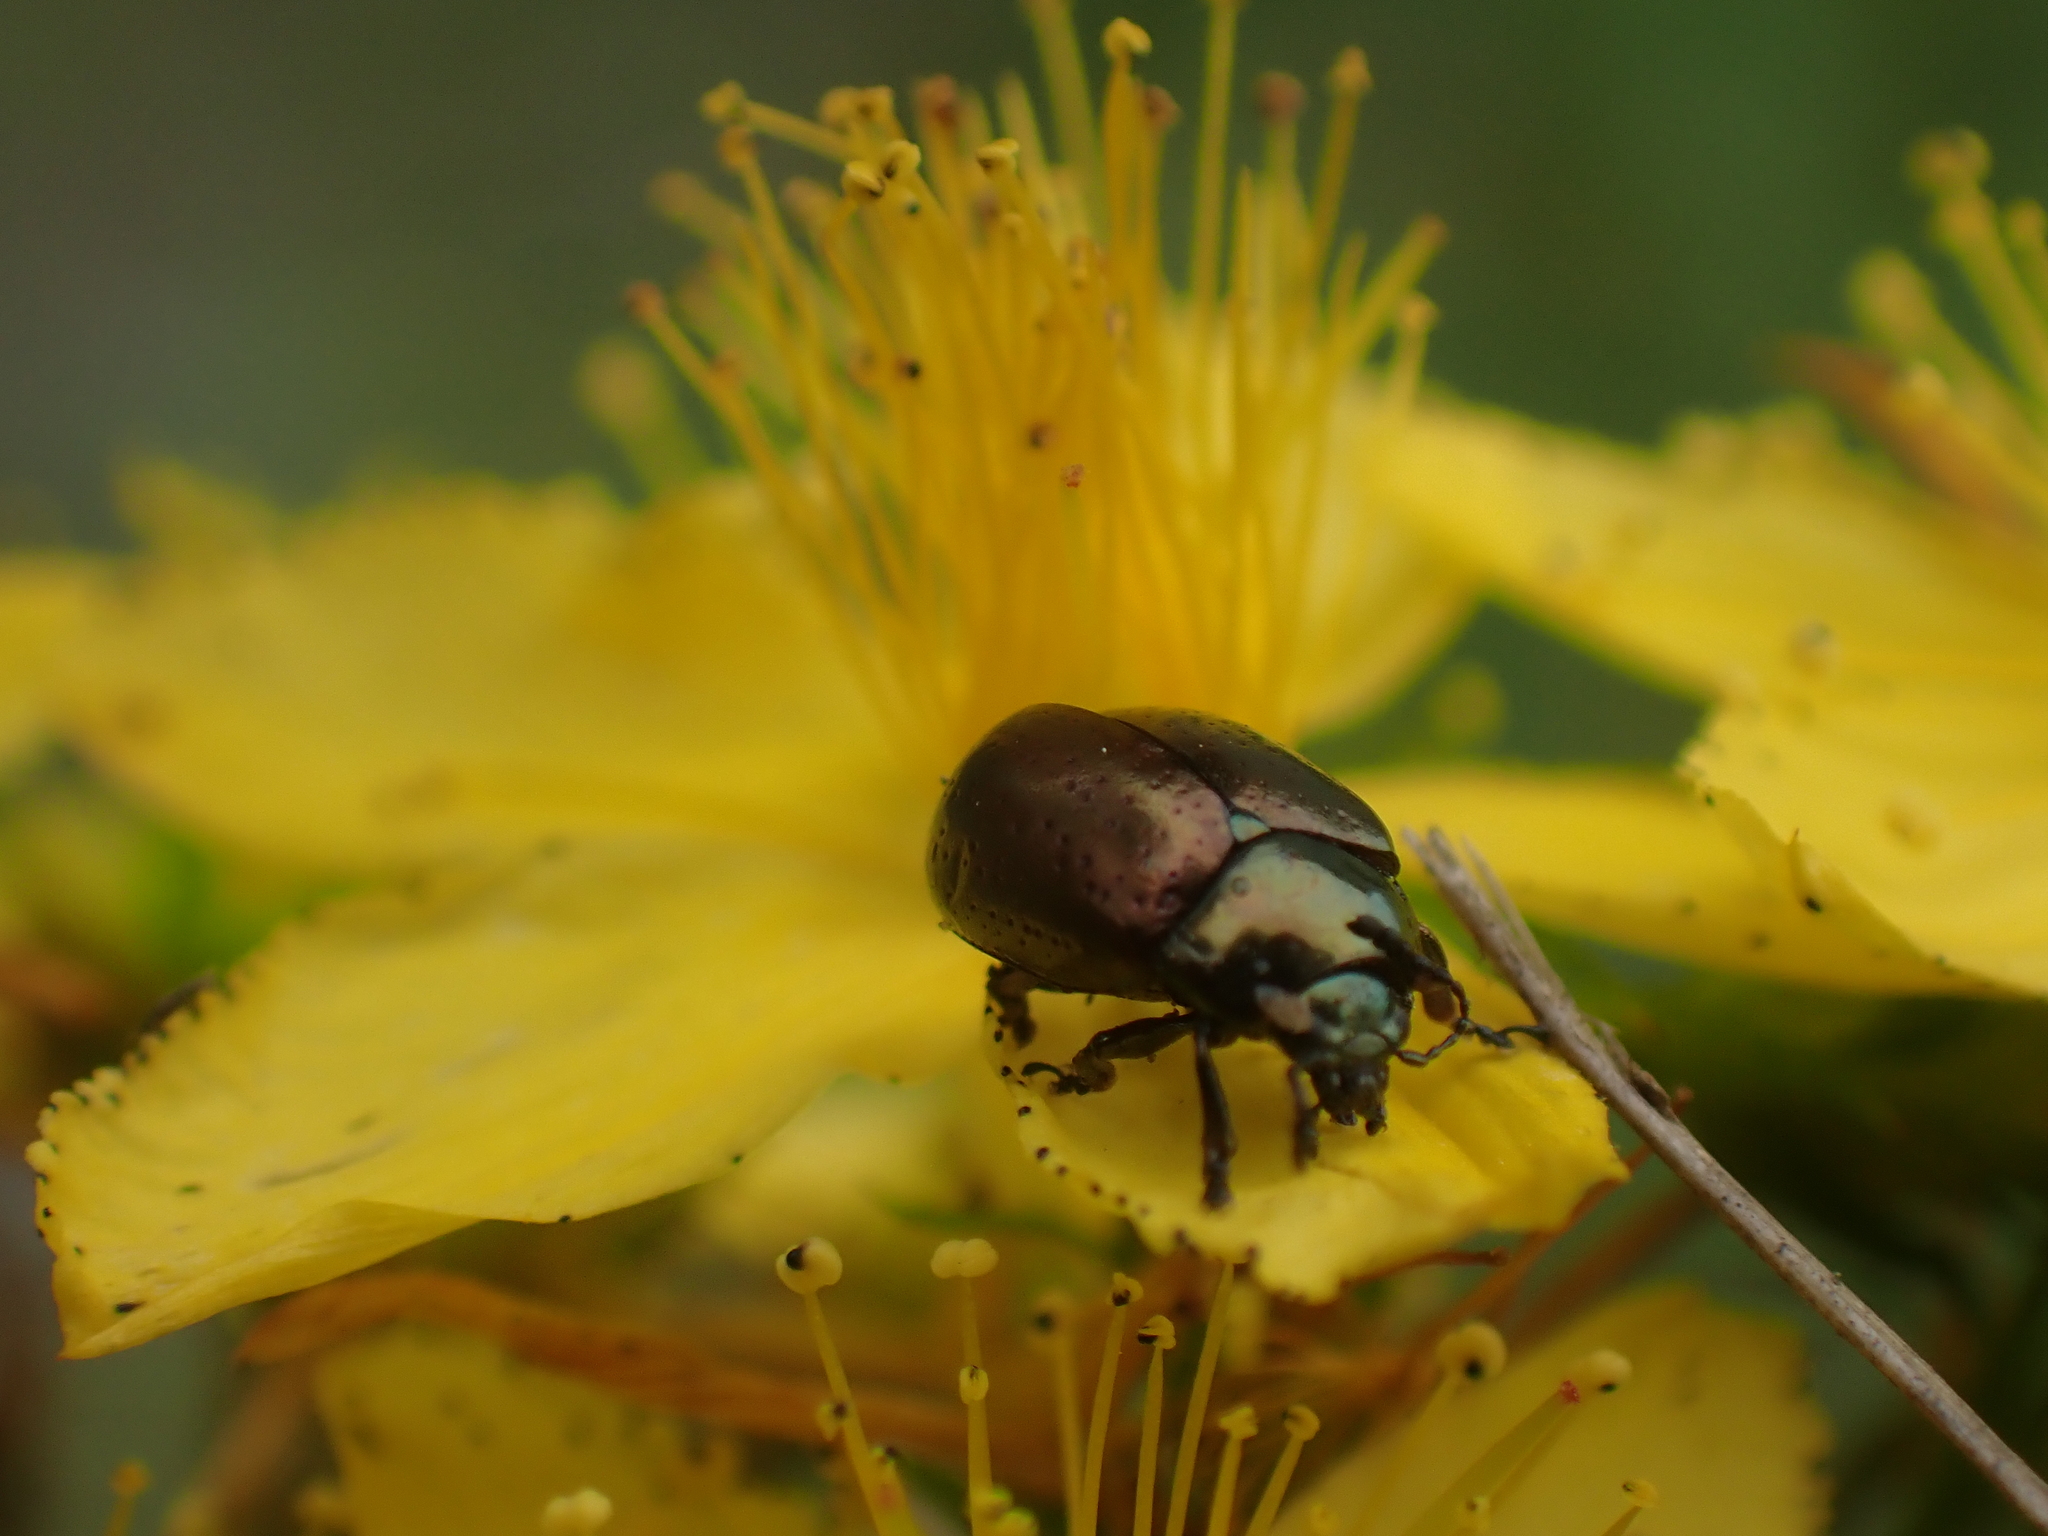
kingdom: Animalia
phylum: Arthropoda
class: Insecta
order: Coleoptera
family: Chrysomelidae
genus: Chrysolina
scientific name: Chrysolina hyperici
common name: St. johnswort beetle
